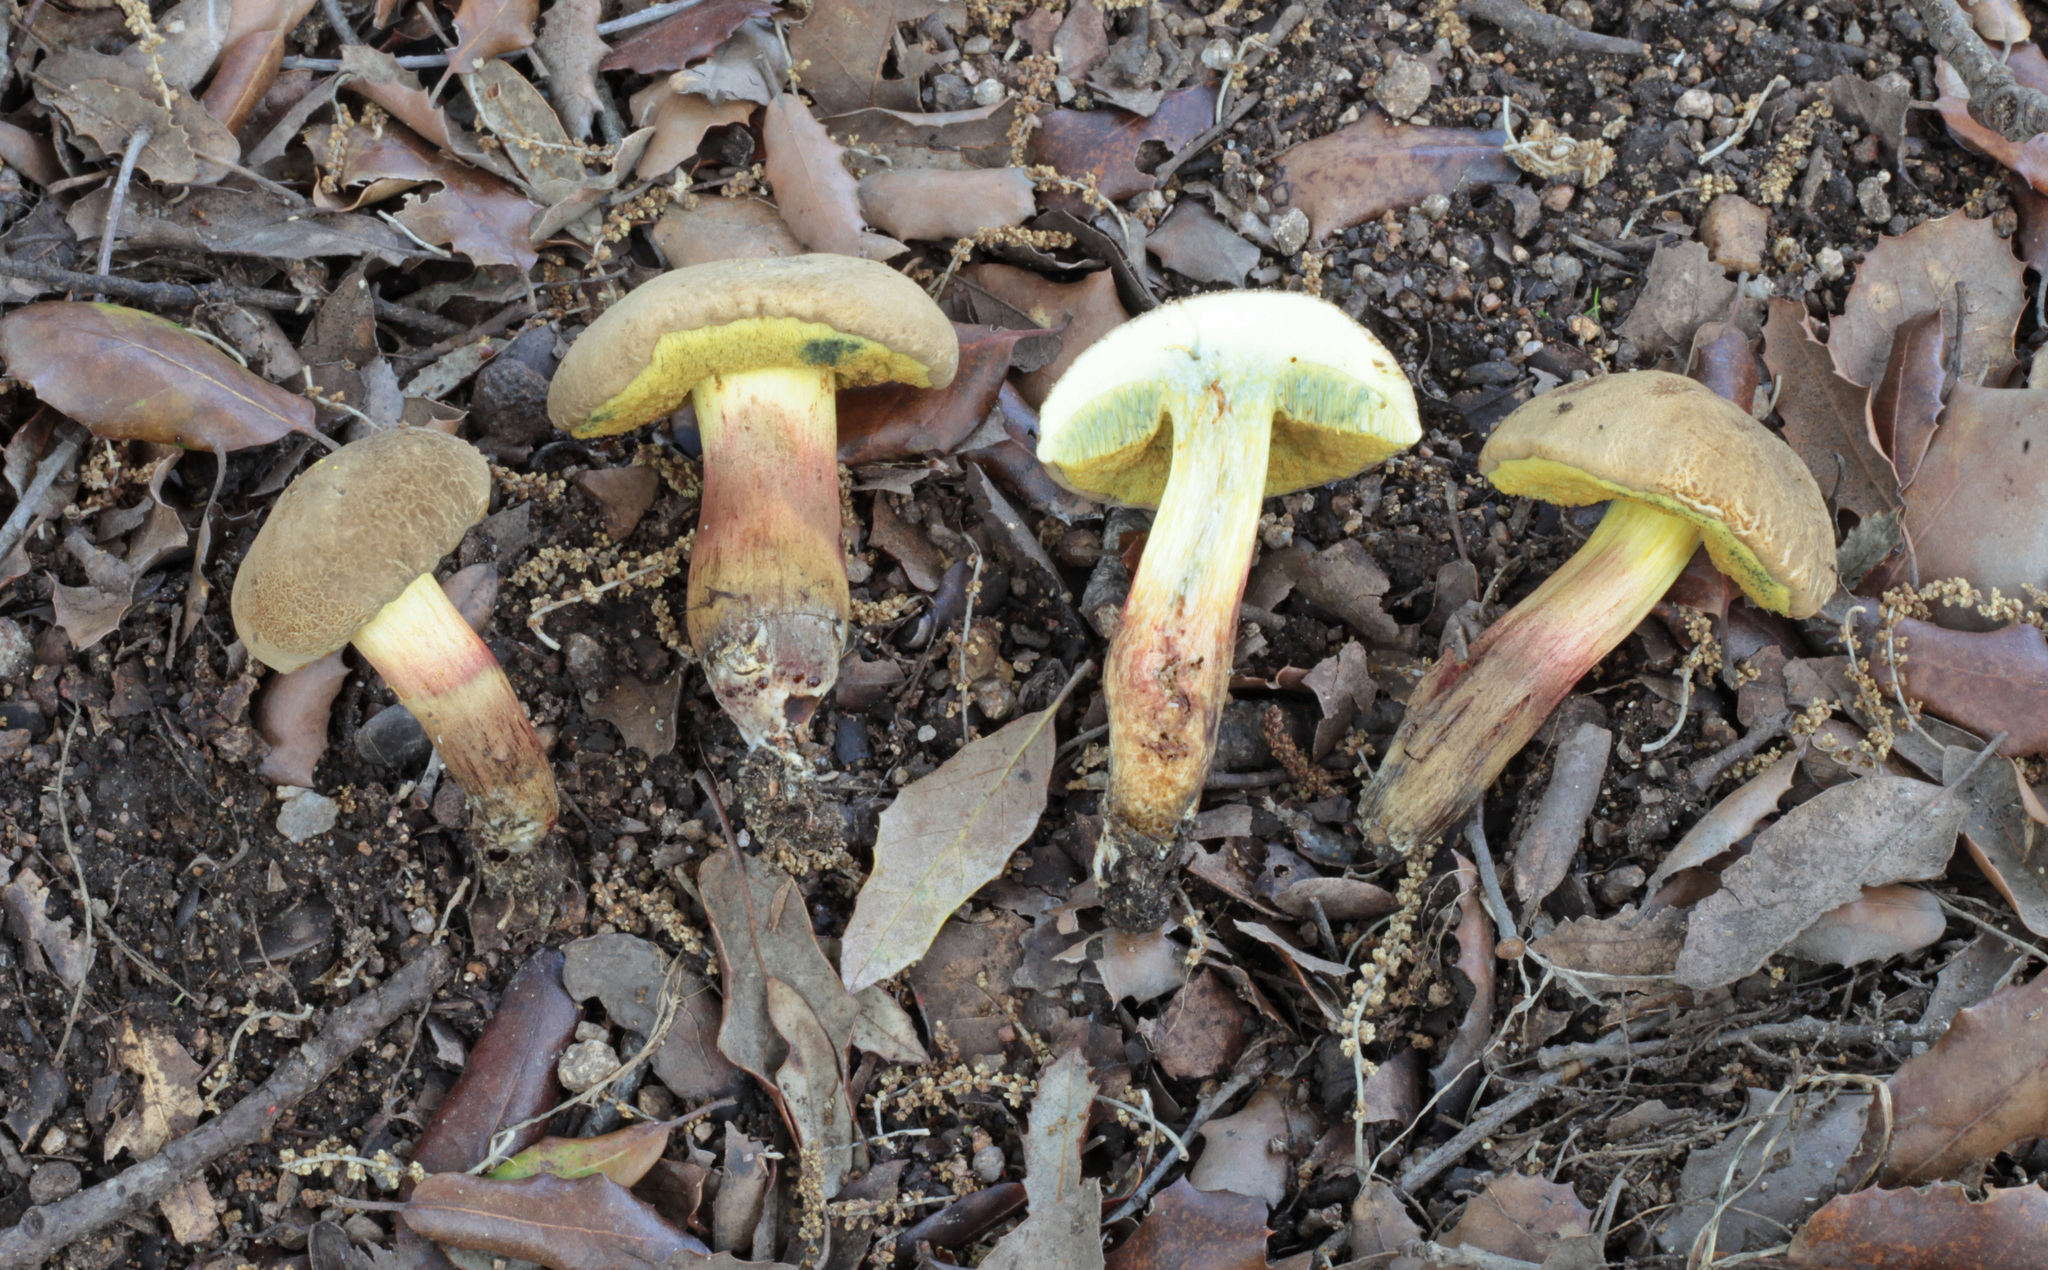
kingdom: Fungi
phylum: Basidiomycota
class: Agaricomycetes
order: Boletales
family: Boletaceae
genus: Xerocomellus
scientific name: Xerocomellus sarnarii
